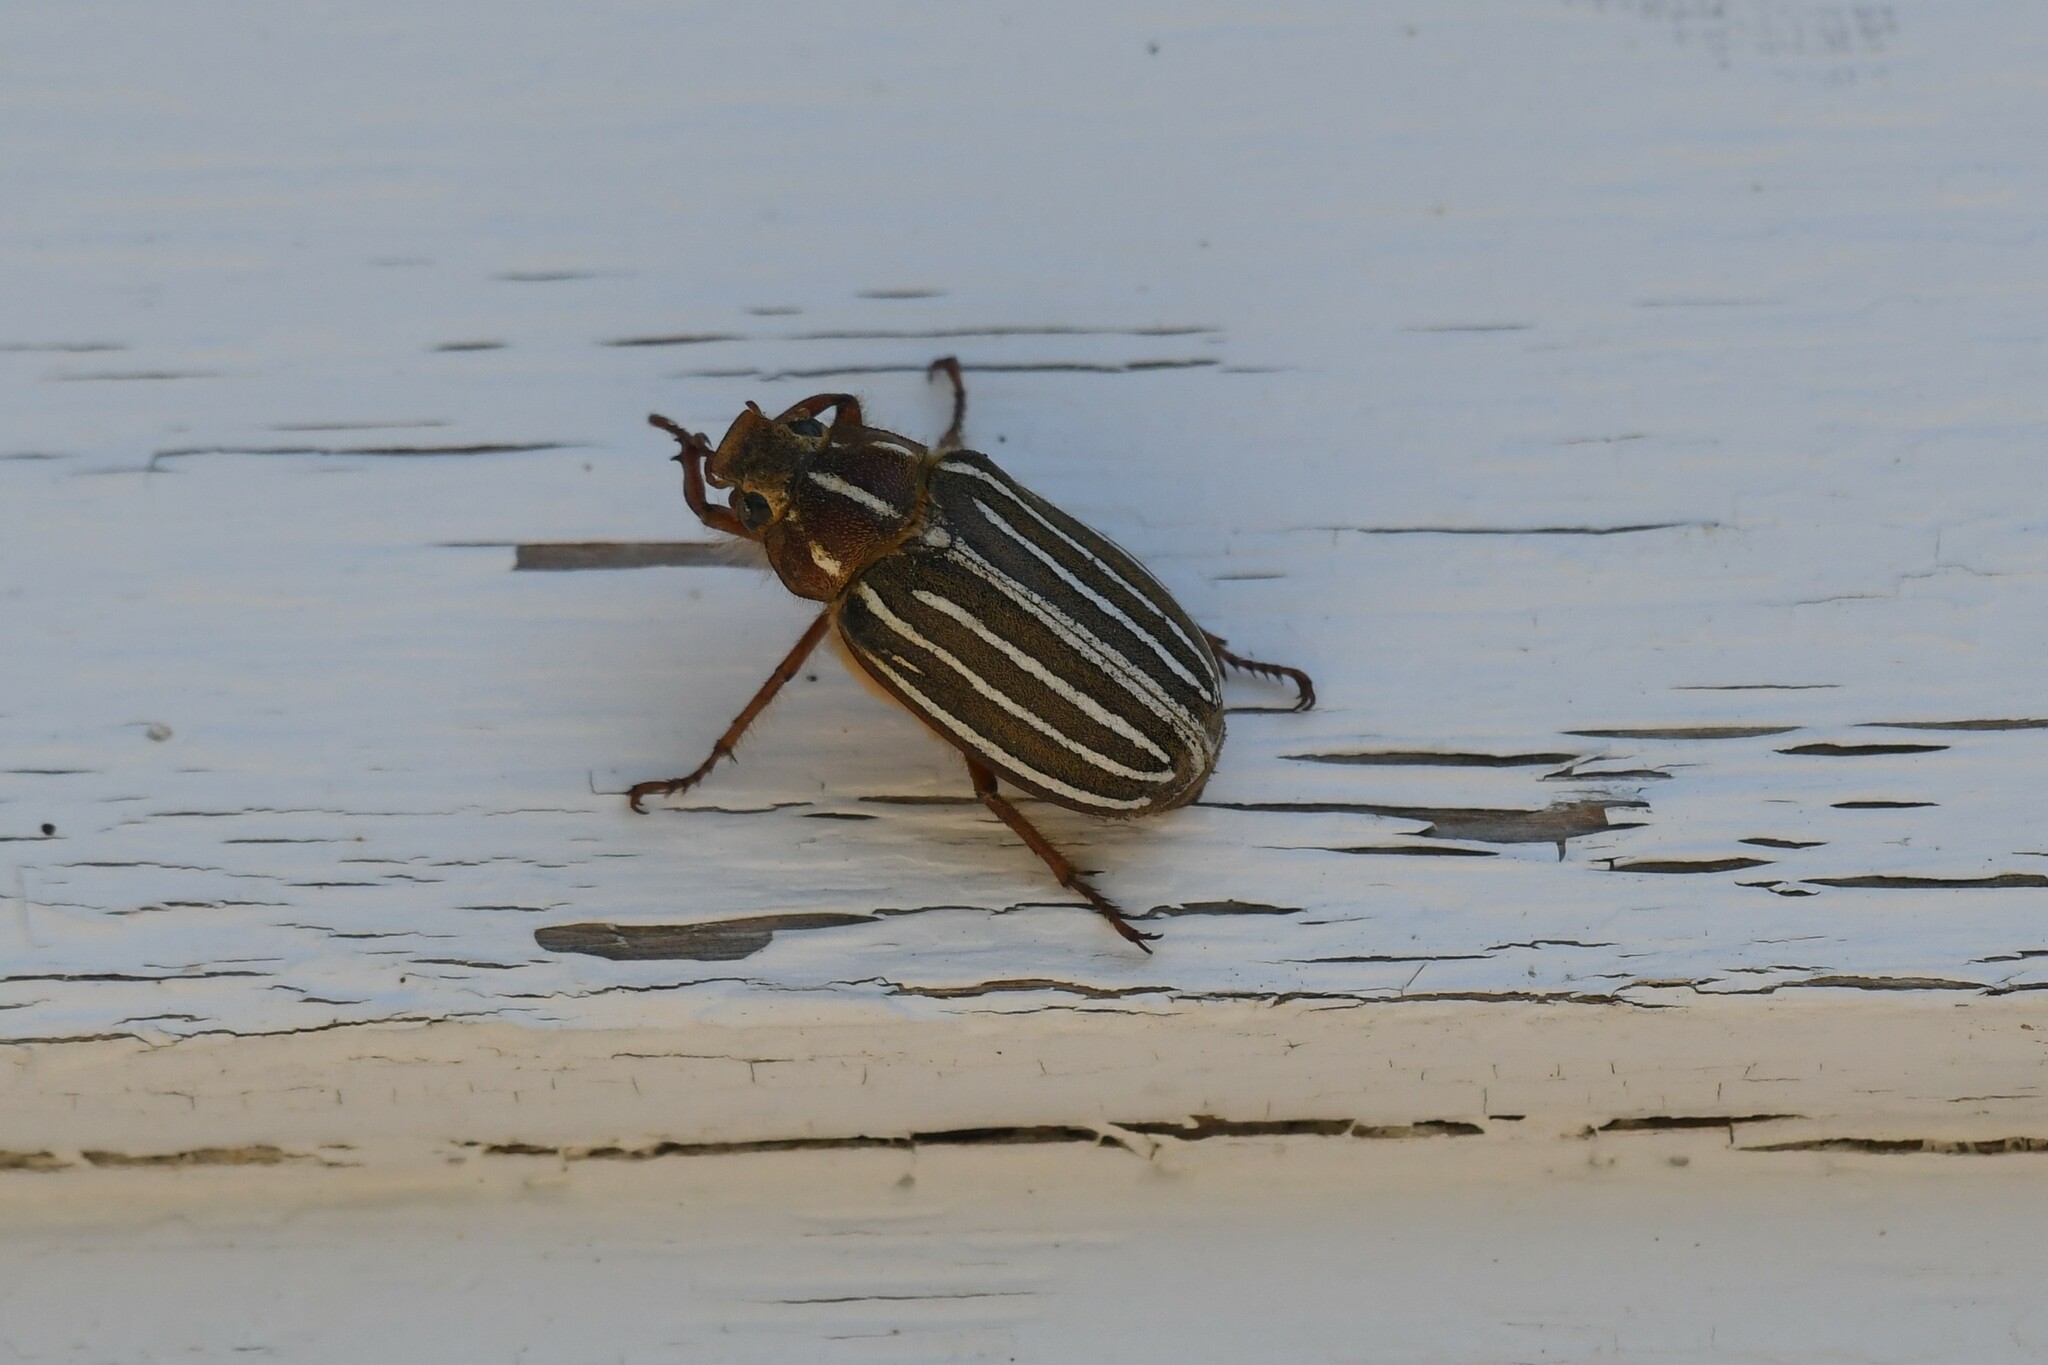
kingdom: Animalia
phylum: Arthropoda
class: Insecta
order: Coleoptera
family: Scarabaeidae
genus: Polyphylla
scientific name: Polyphylla crinita
